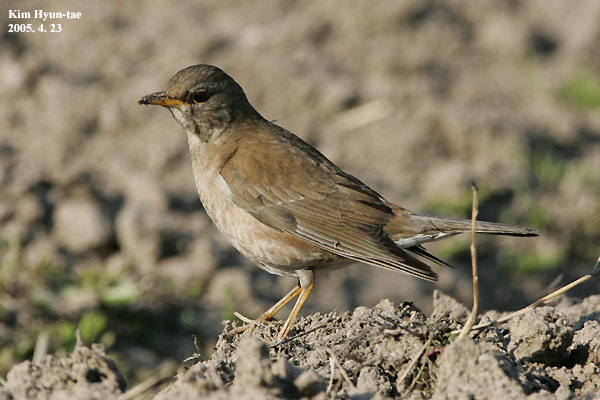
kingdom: Animalia
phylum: Chordata
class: Aves
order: Passeriformes
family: Turdidae
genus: Turdus
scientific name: Turdus pallidus
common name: Pale thrush
